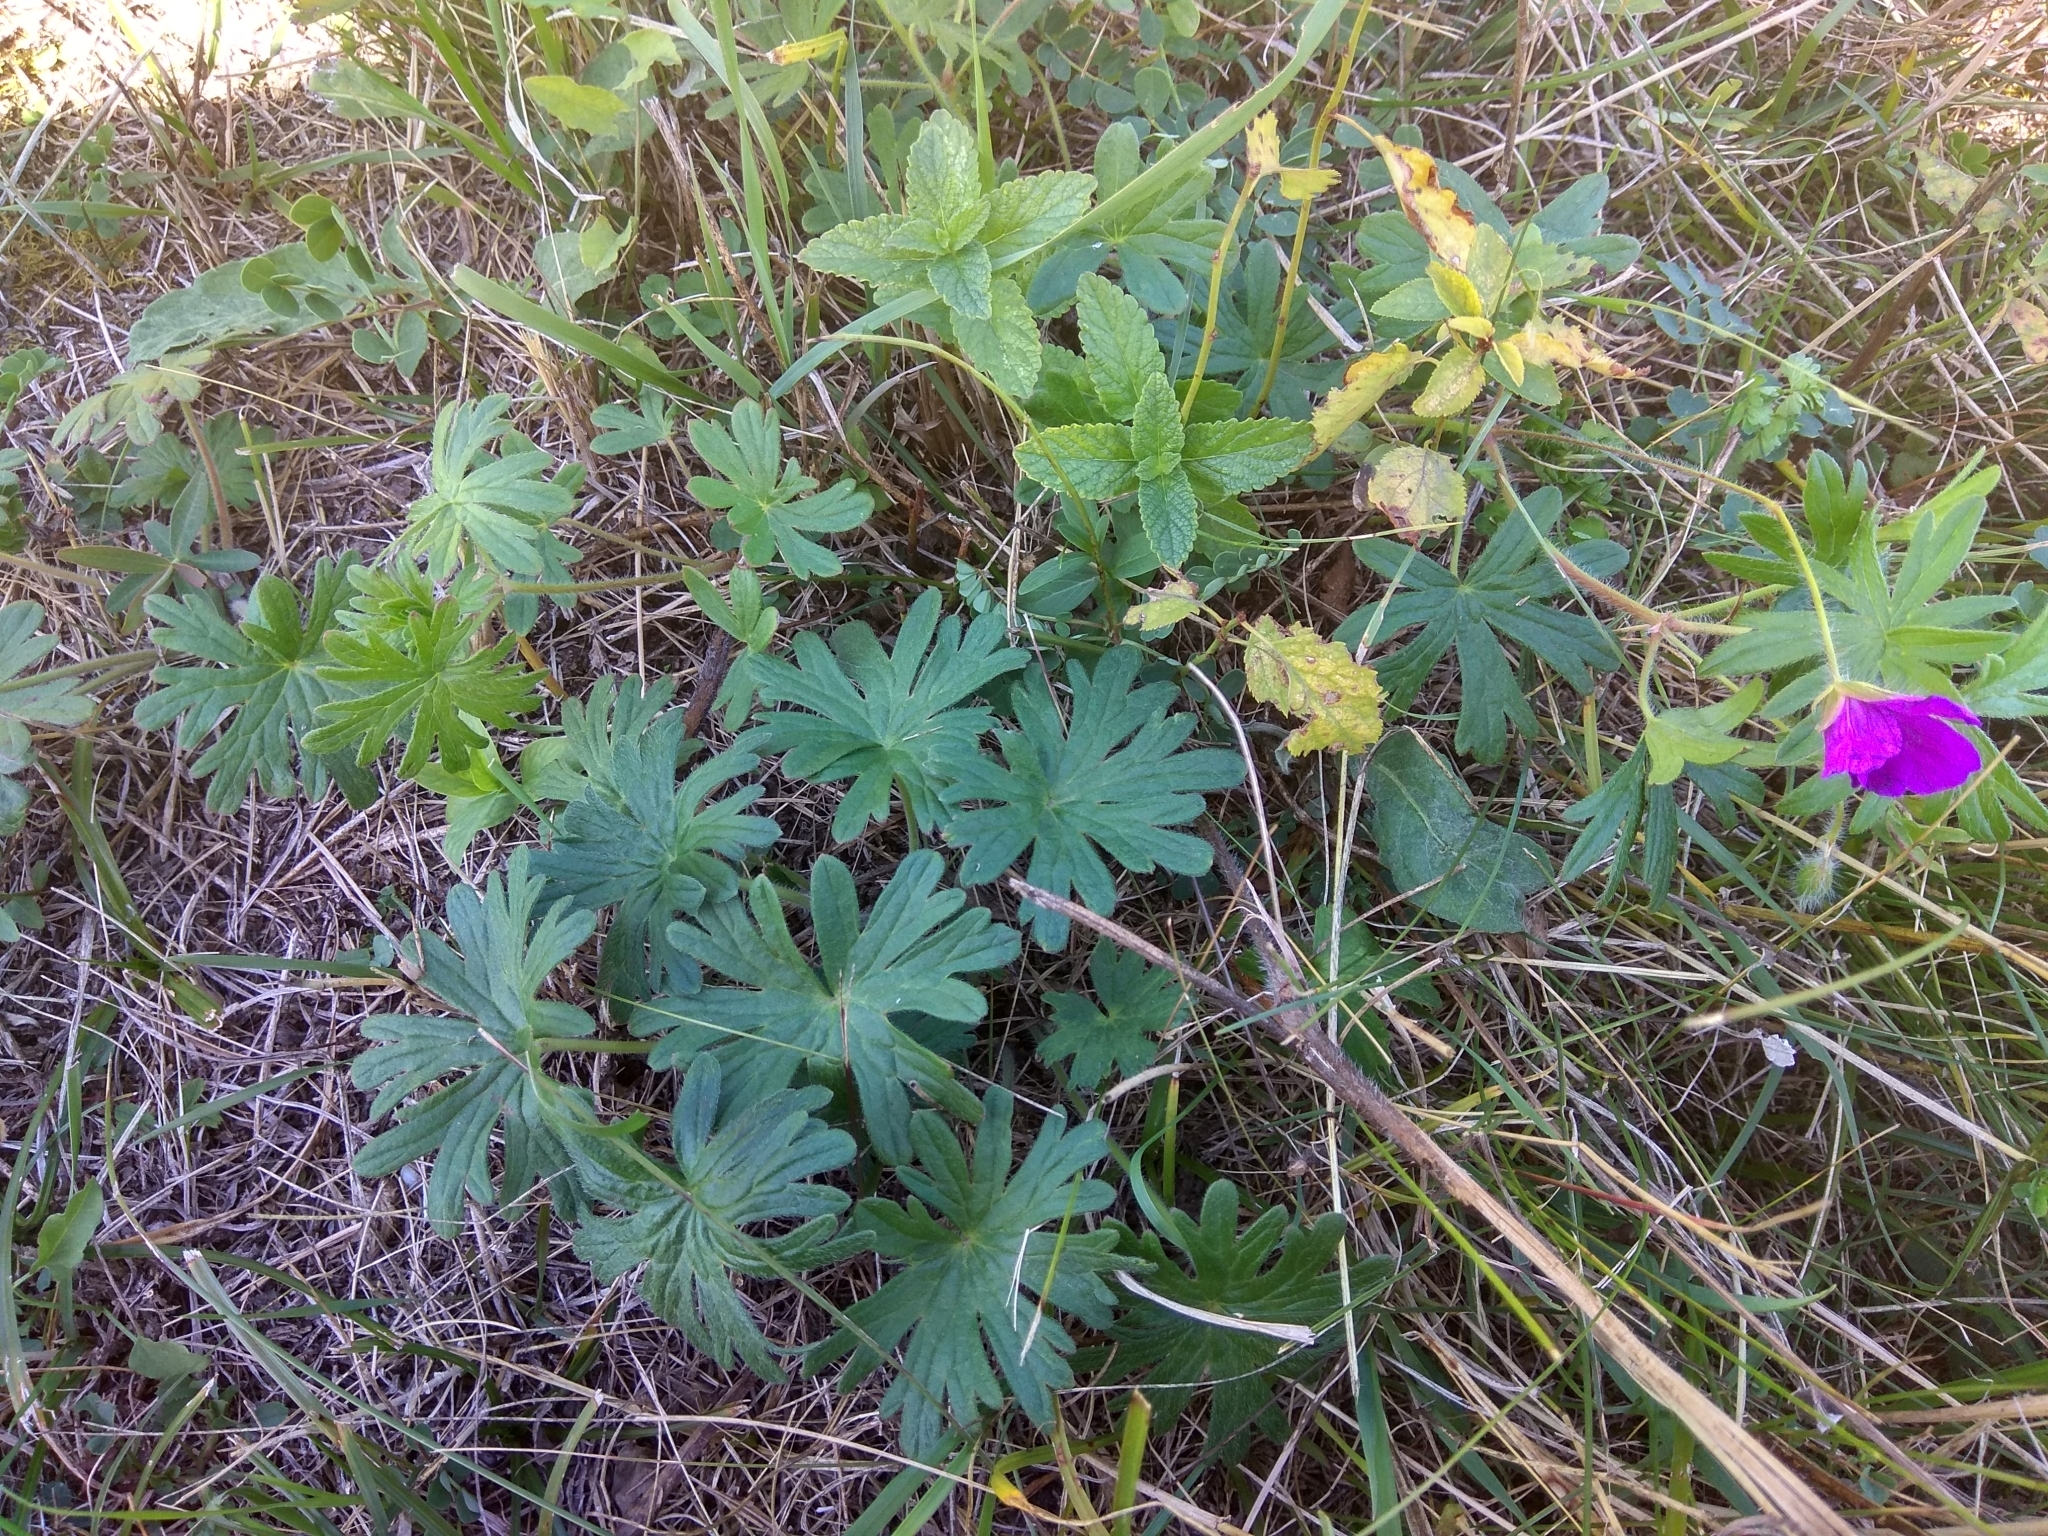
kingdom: Plantae
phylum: Tracheophyta
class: Magnoliopsida
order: Geraniales
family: Geraniaceae
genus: Geranium
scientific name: Geranium sanguineum
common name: Bloody crane's-bill
